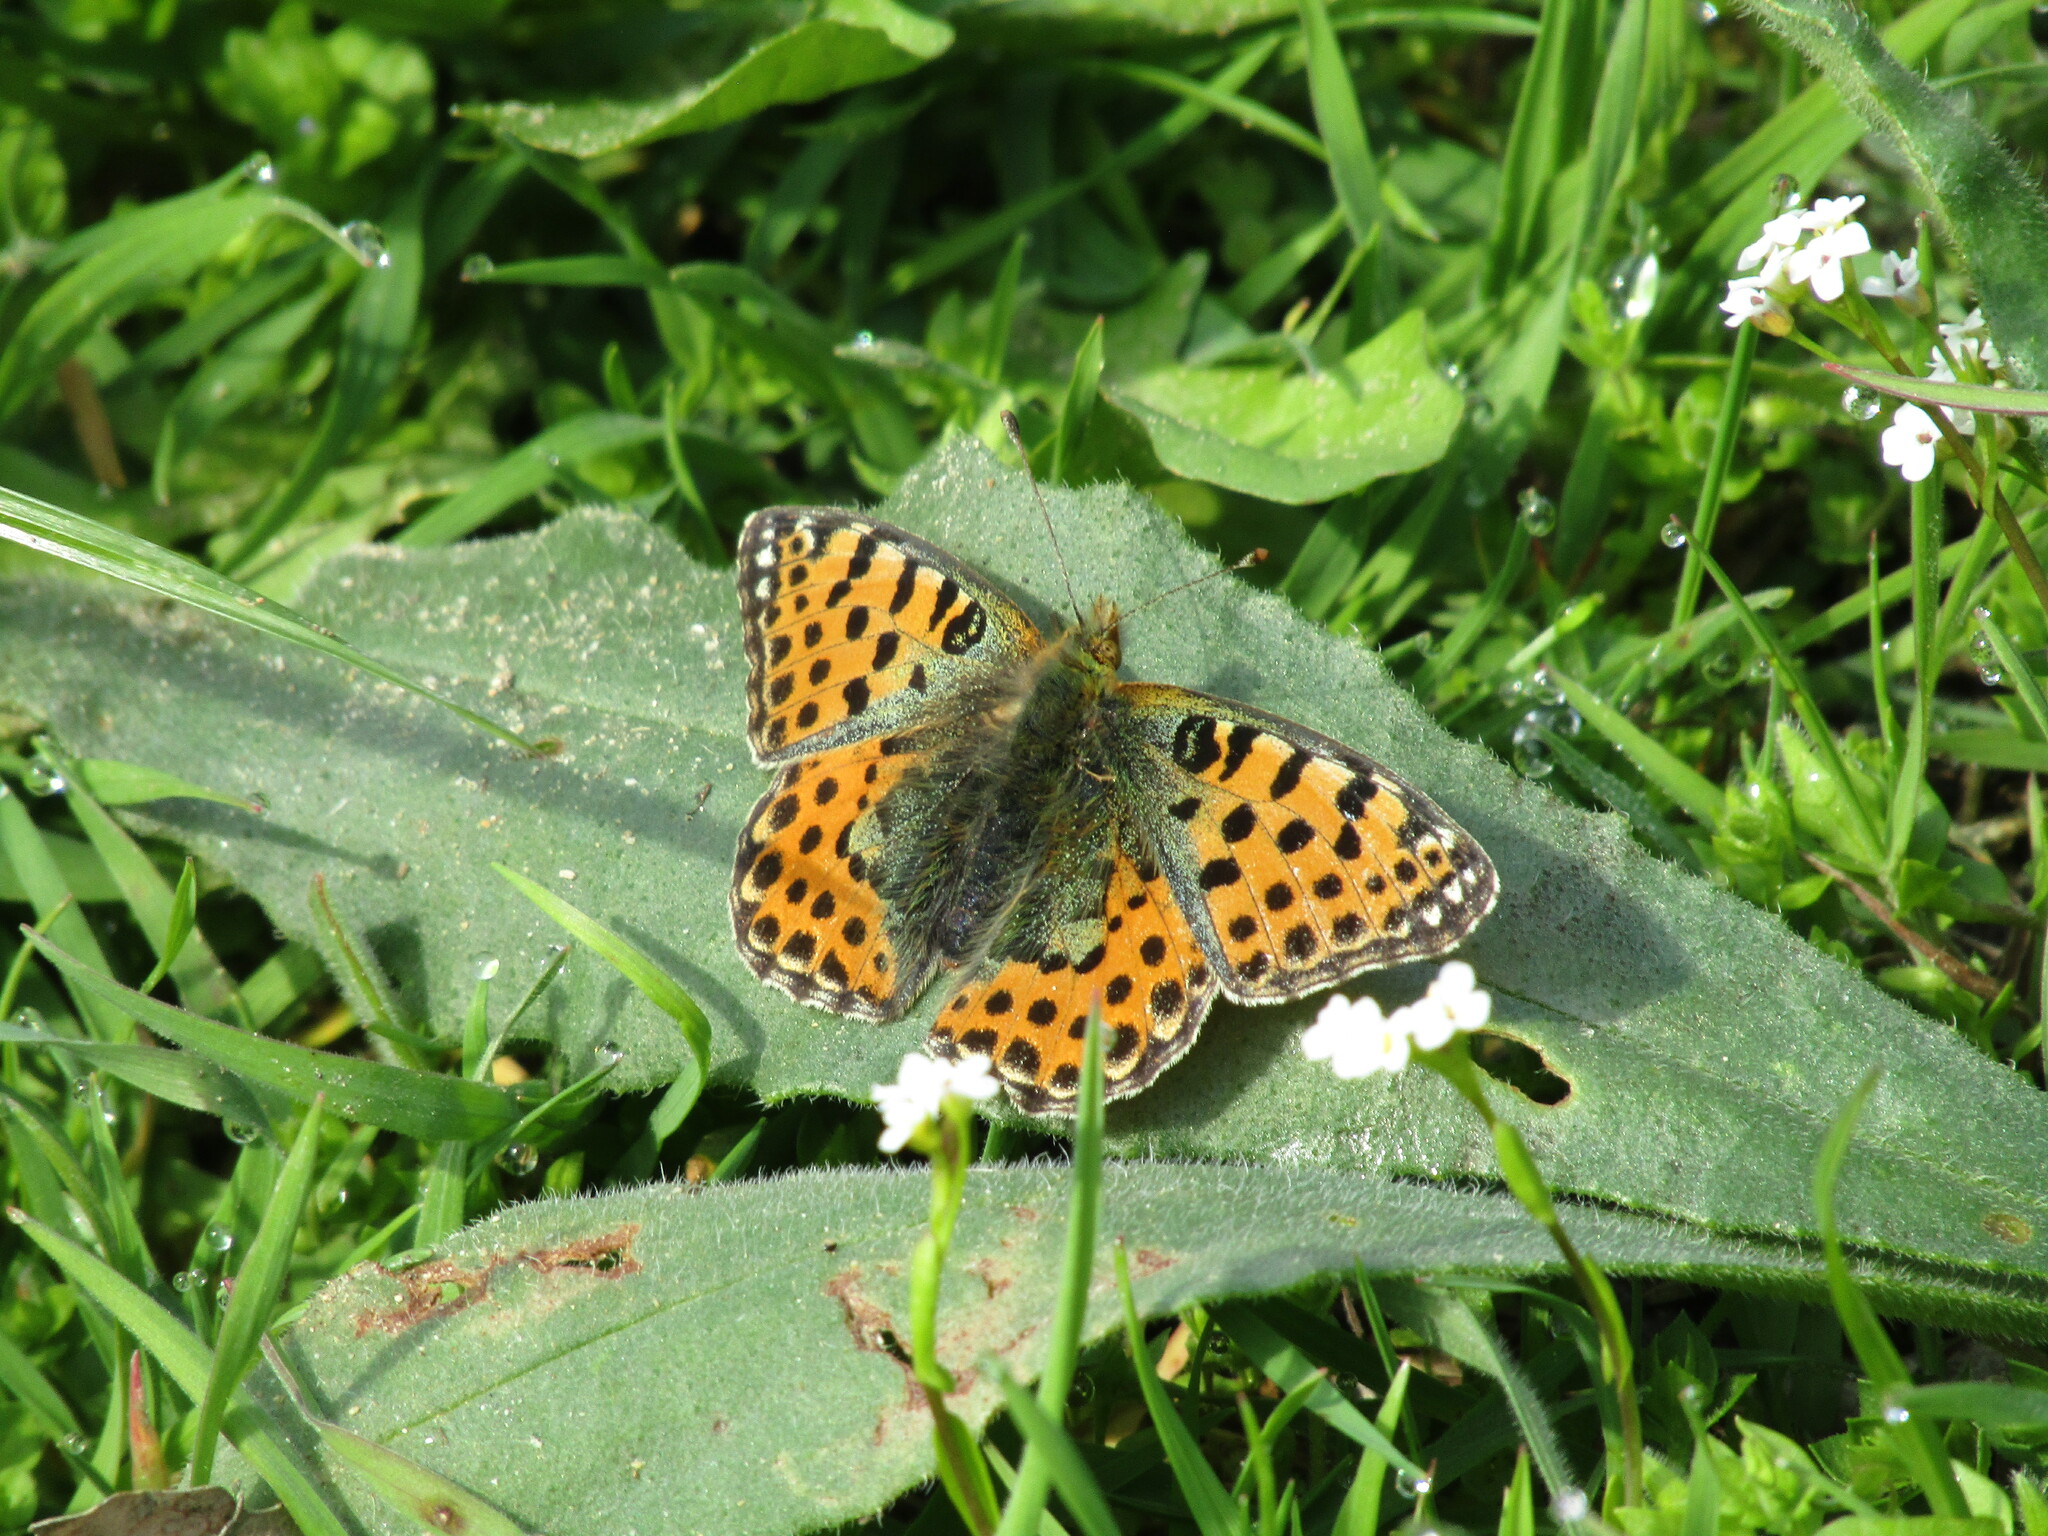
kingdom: Animalia
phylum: Arthropoda
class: Insecta
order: Lepidoptera
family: Nymphalidae
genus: Issoria
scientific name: Issoria lathonia
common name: Queen of spain fritillary
